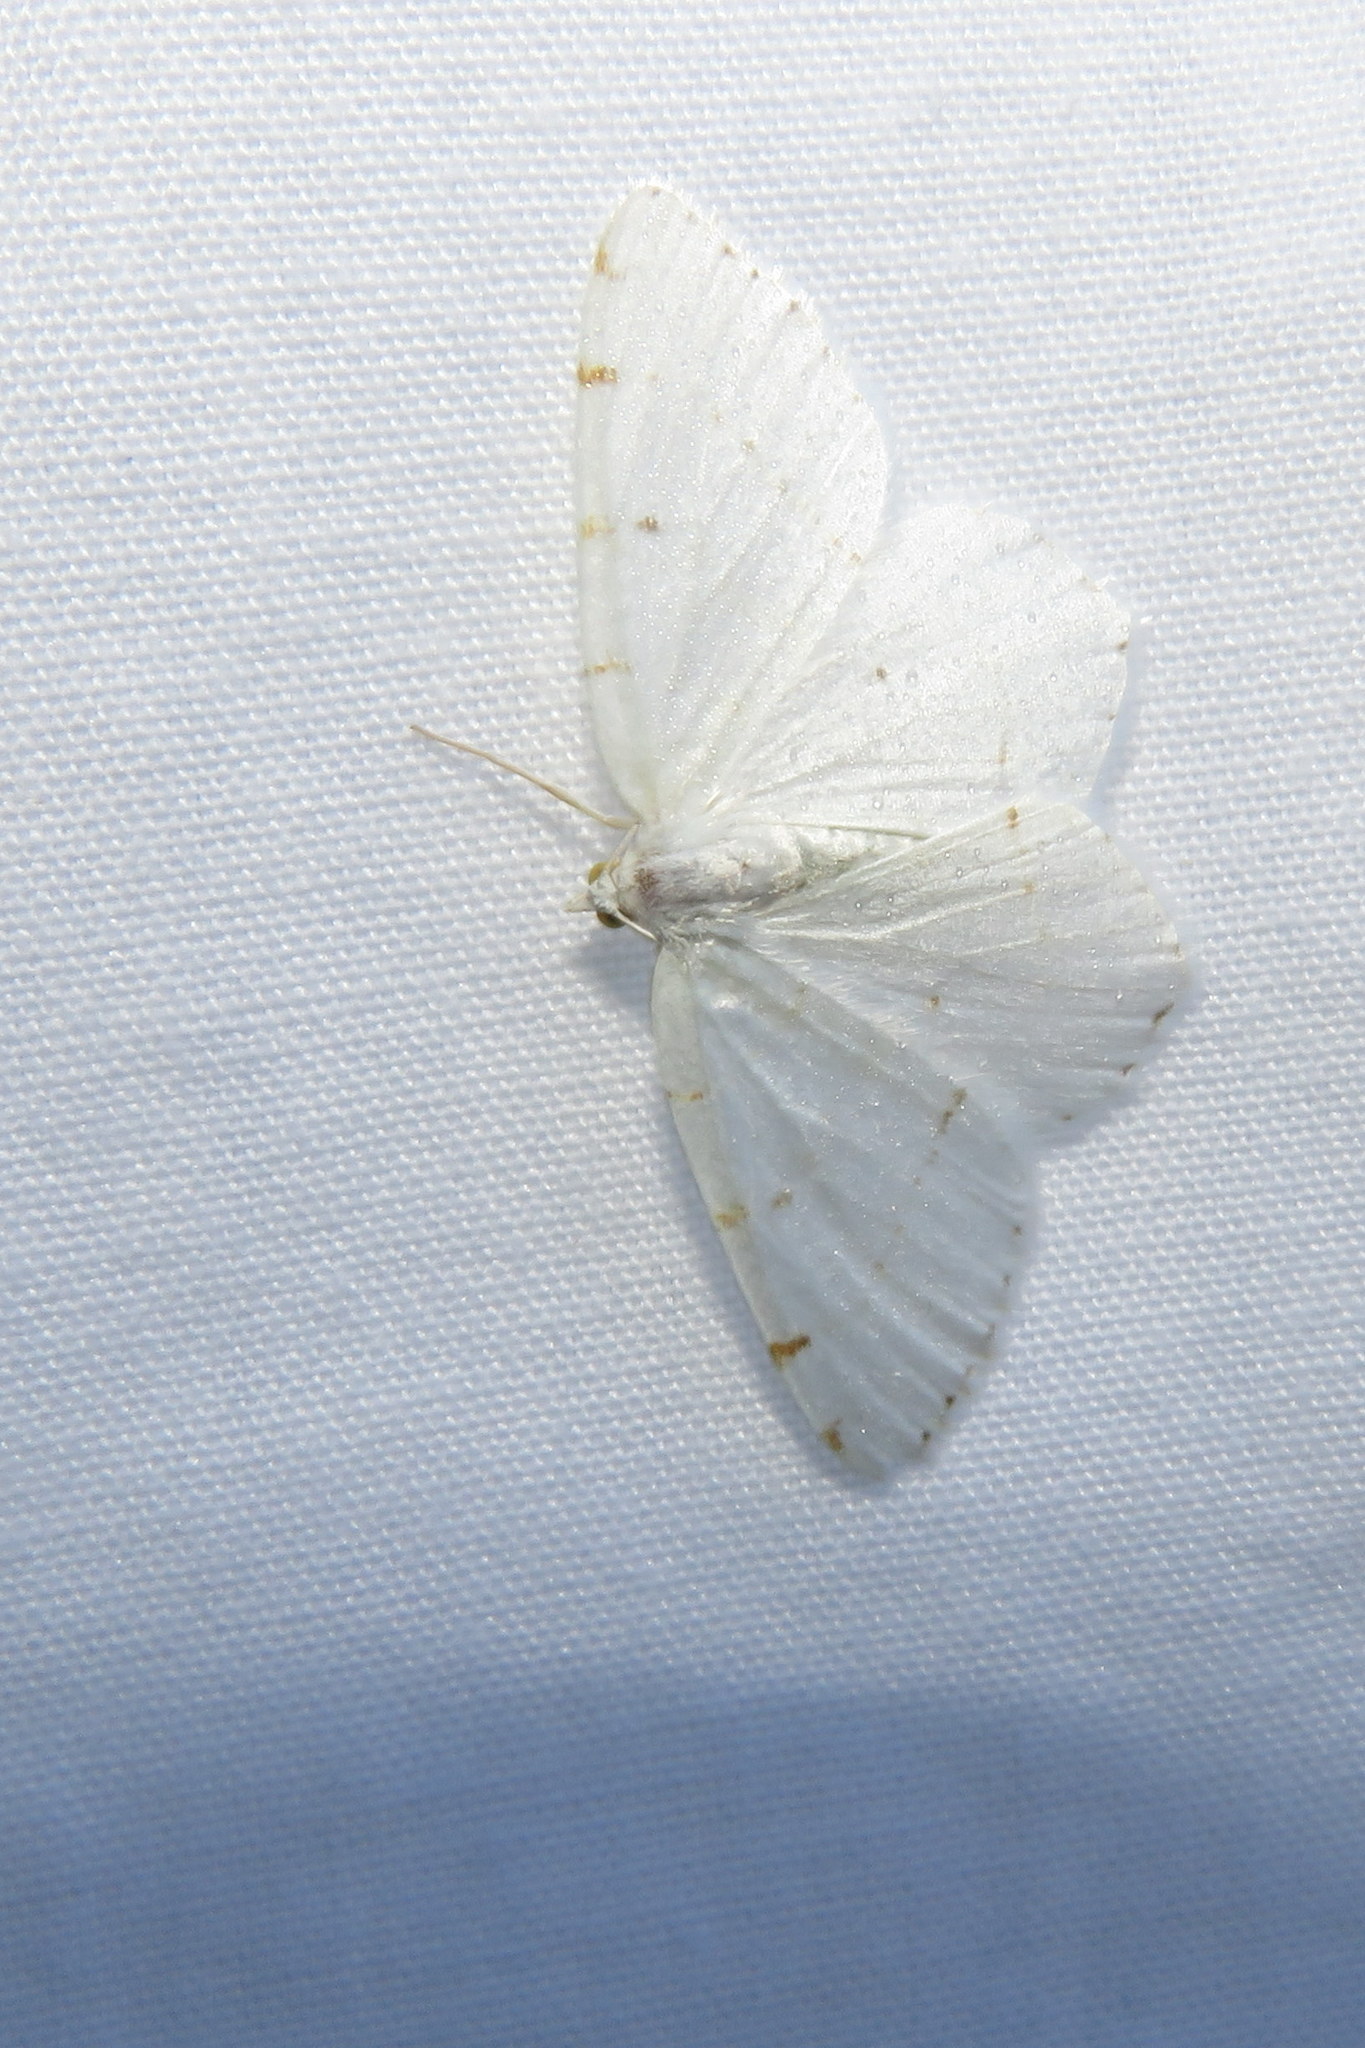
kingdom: Animalia
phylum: Arthropoda
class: Insecta
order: Lepidoptera
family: Geometridae
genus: Macaria
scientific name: Macaria pustularia
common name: Lesser maple spanworm moth
